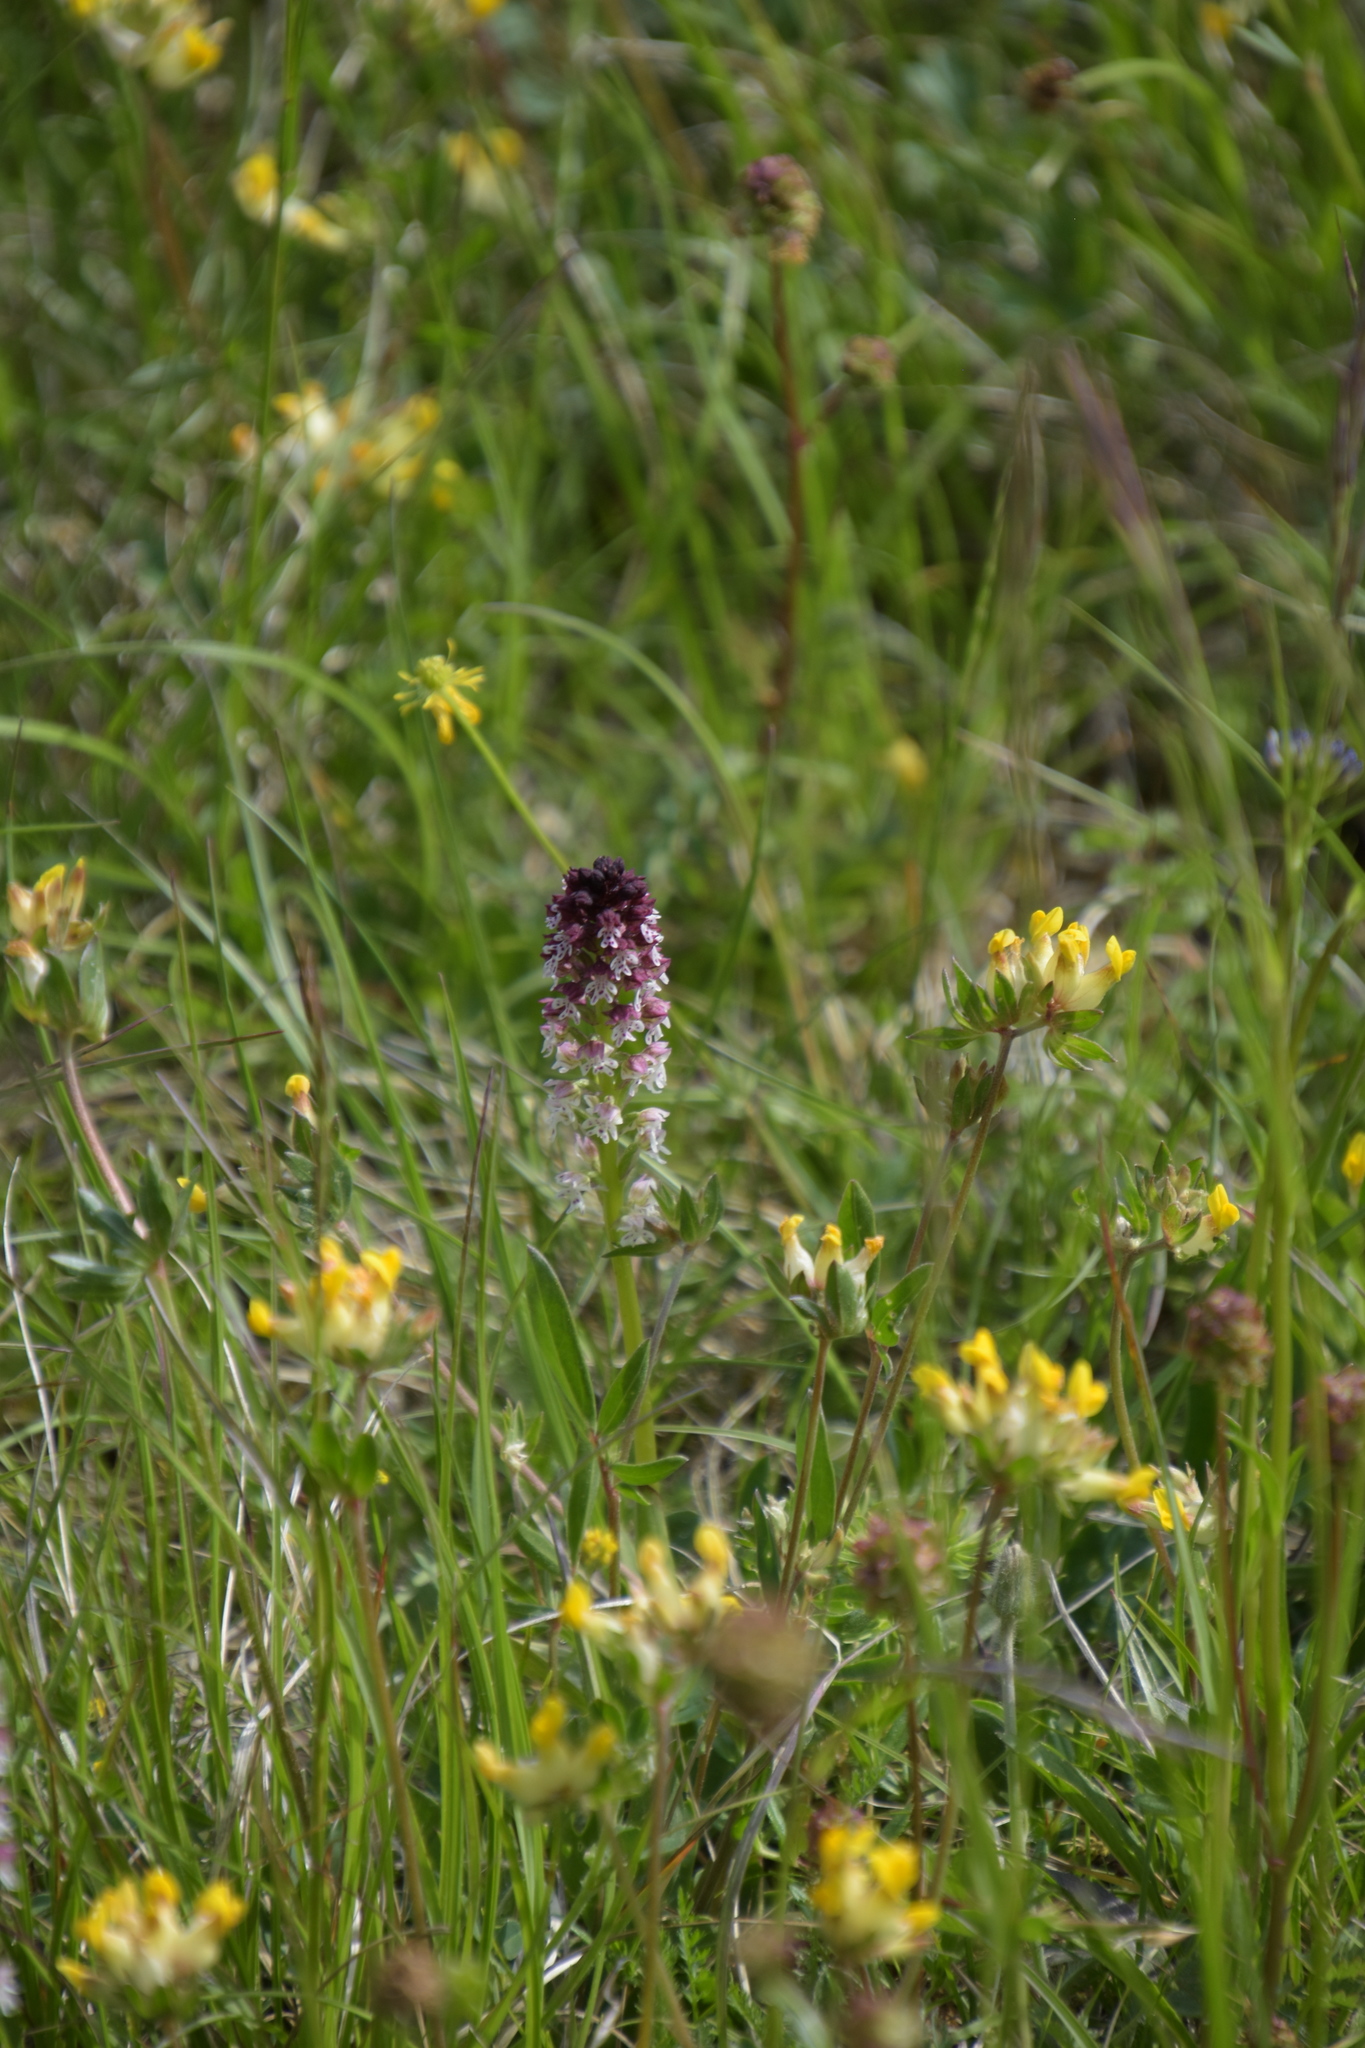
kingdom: Plantae
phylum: Tracheophyta
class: Liliopsida
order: Asparagales
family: Orchidaceae
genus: Neotinea
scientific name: Neotinea ustulata
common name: Burnt orchid
